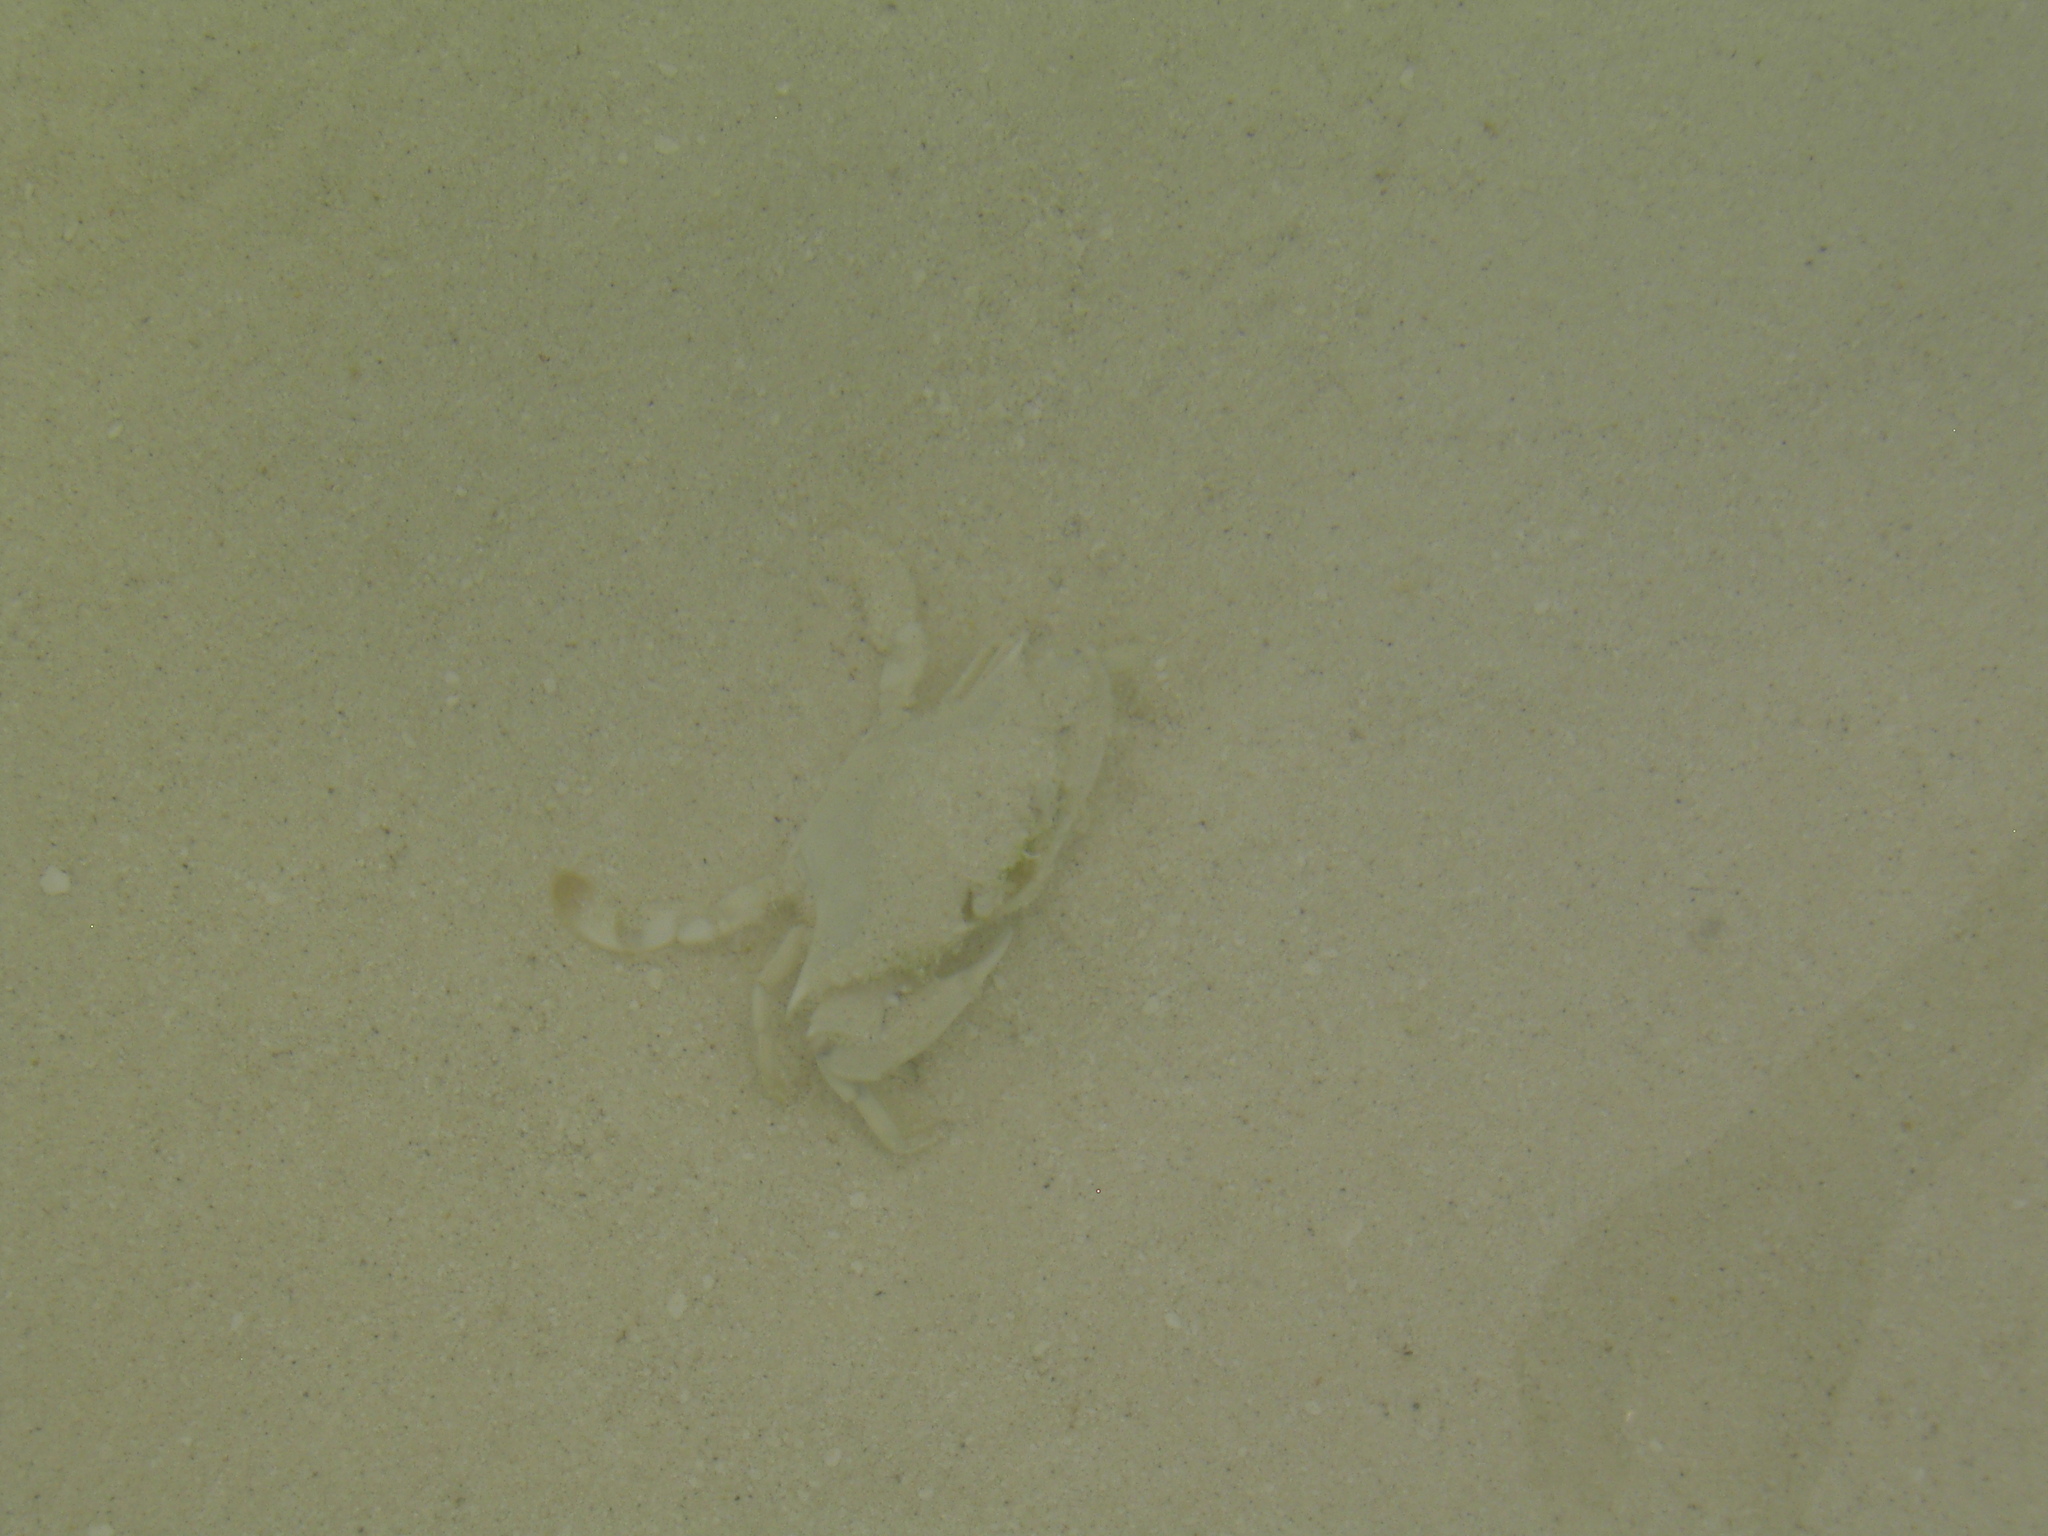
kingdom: Animalia
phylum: Arthropoda
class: Malacostraca
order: Decapoda
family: Portunidae
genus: Callinectes
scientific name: Callinectes ornatus
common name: Ornate crab
